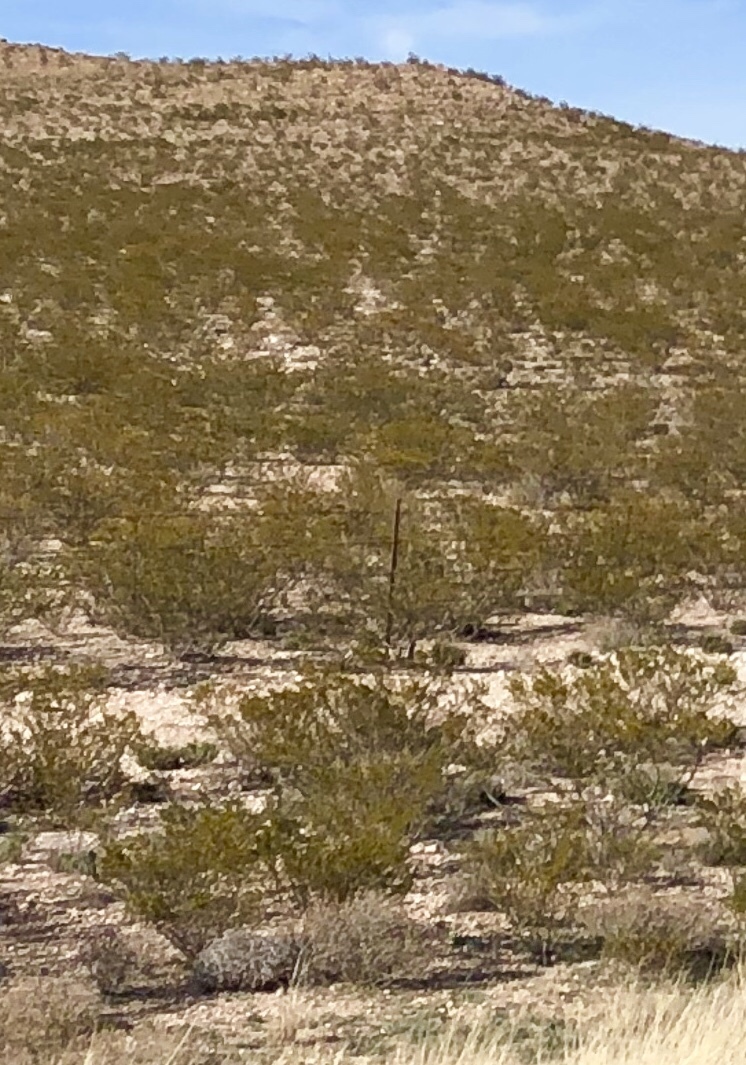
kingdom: Plantae
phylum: Tracheophyta
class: Magnoliopsida
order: Zygophyllales
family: Zygophyllaceae
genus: Larrea
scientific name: Larrea tridentata
